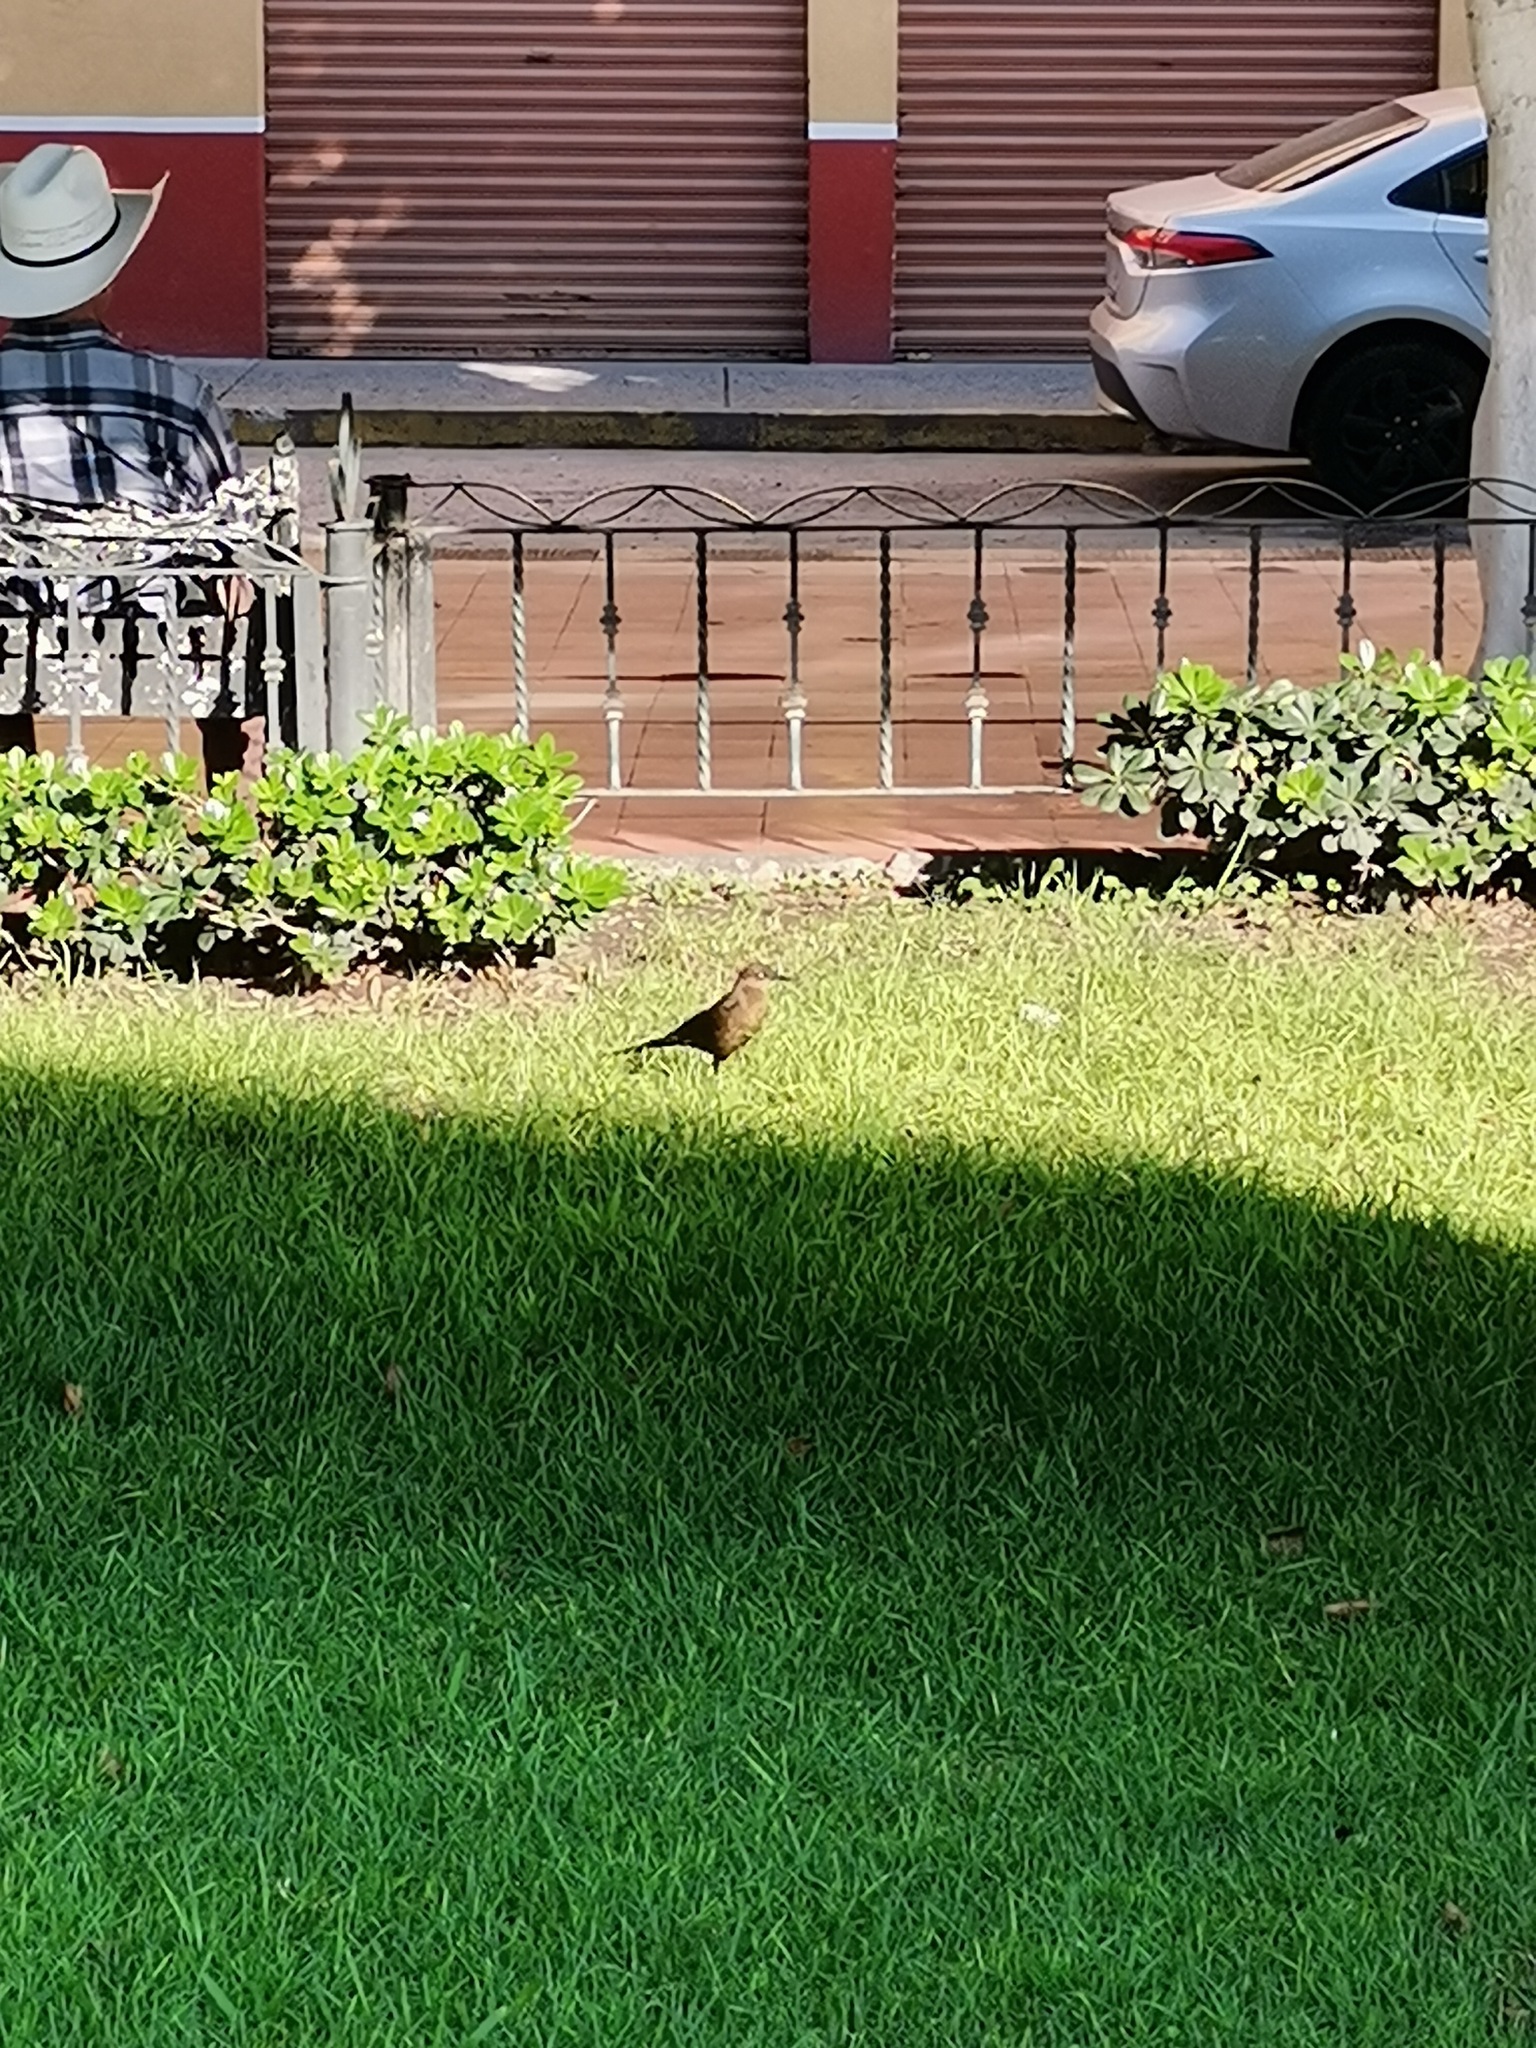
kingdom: Animalia
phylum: Chordata
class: Aves
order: Passeriformes
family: Icteridae
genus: Quiscalus
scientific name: Quiscalus mexicanus
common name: Great-tailed grackle
